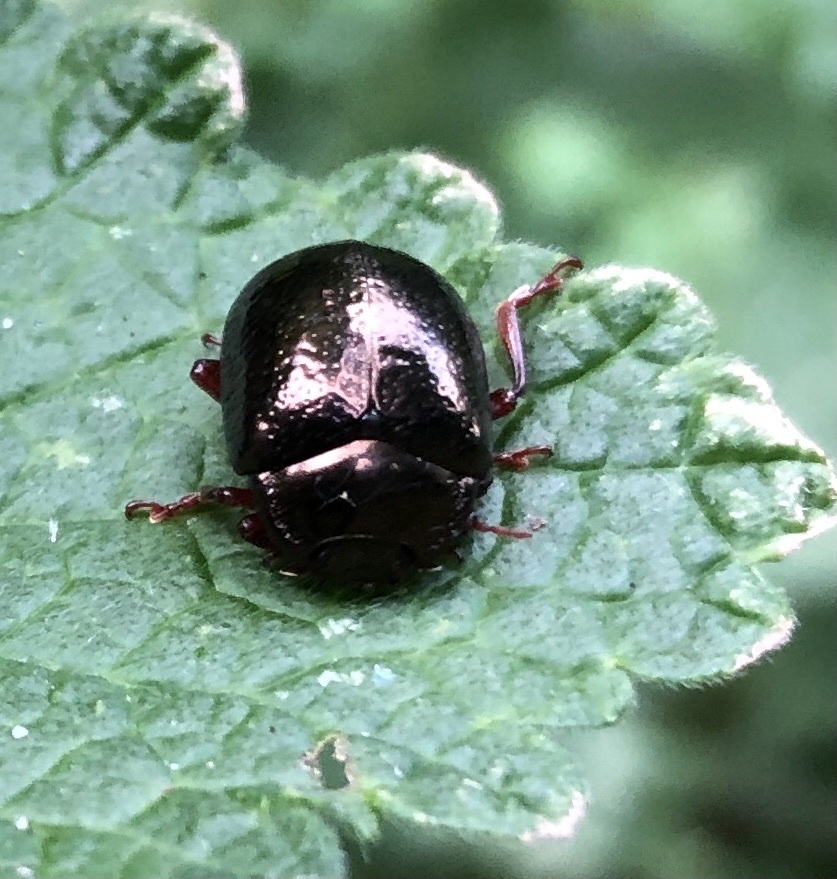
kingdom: Animalia
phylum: Arthropoda
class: Insecta
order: Coleoptera
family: Chrysomelidae
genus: Chrysolina
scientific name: Chrysolina bankii
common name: Leaf beetle
